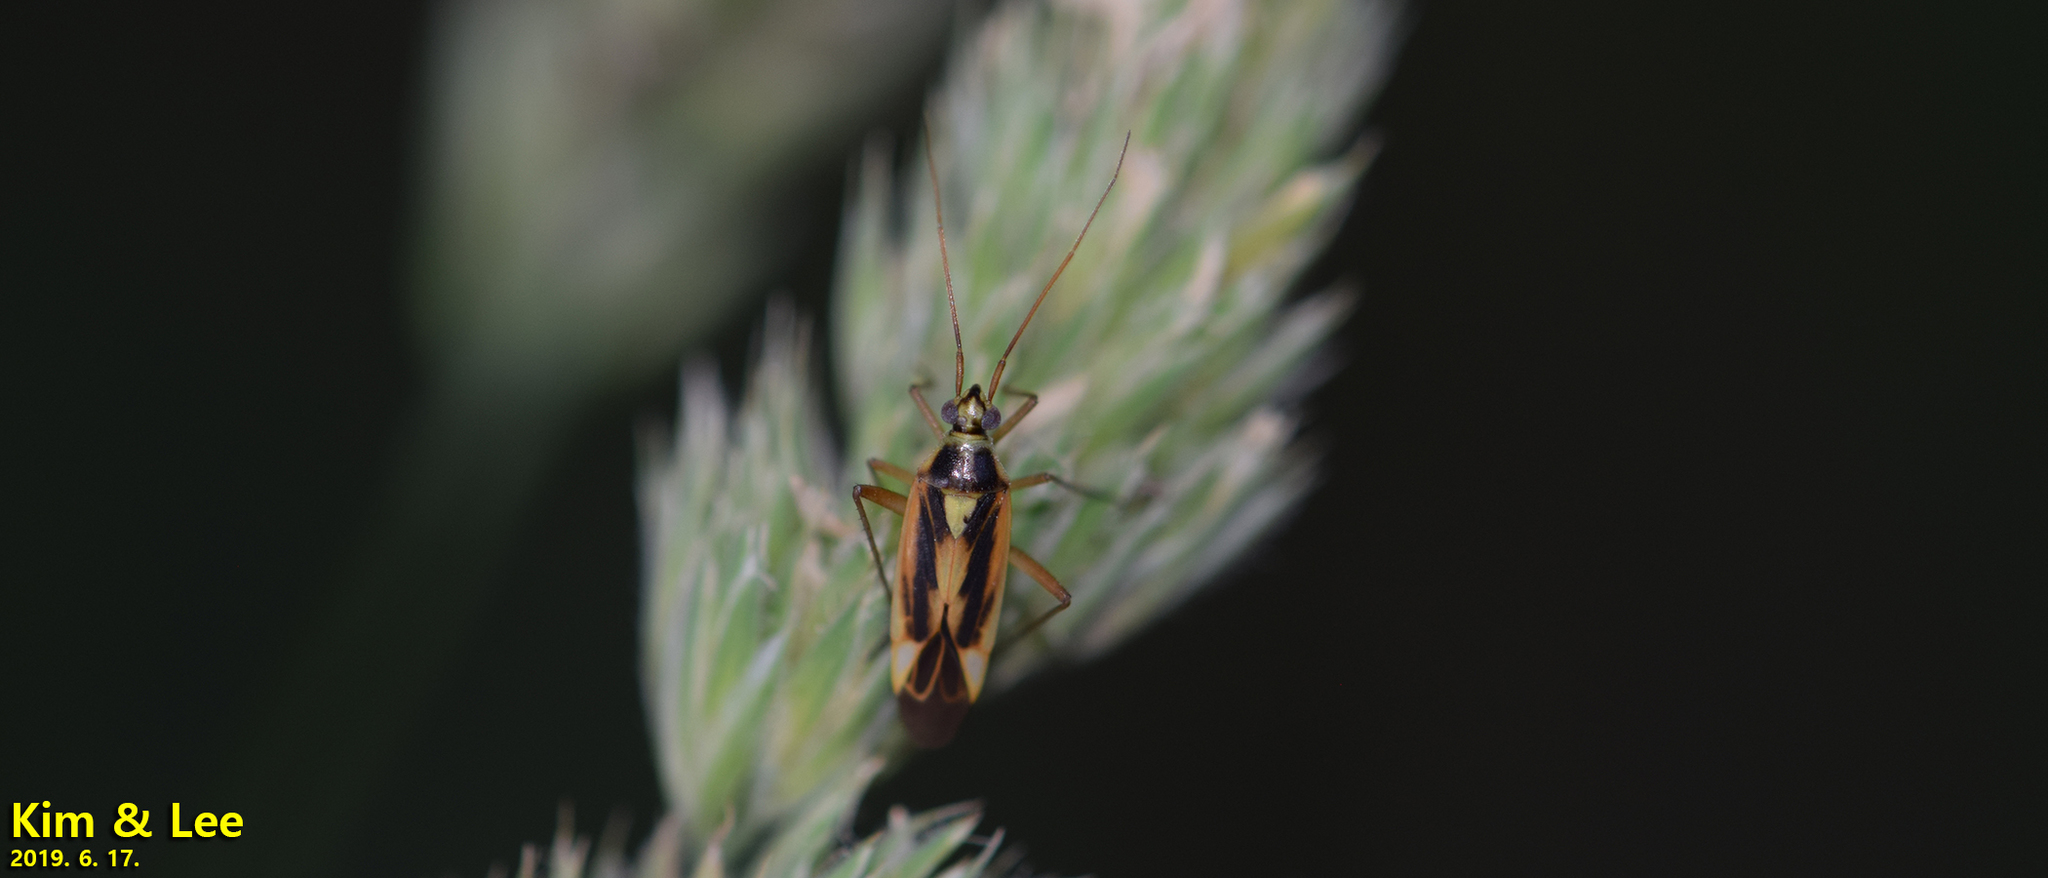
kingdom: Animalia
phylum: Arthropoda
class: Insecta
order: Hemiptera
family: Miridae
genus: Stenotus
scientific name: Stenotus binotatus
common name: Plant bug
